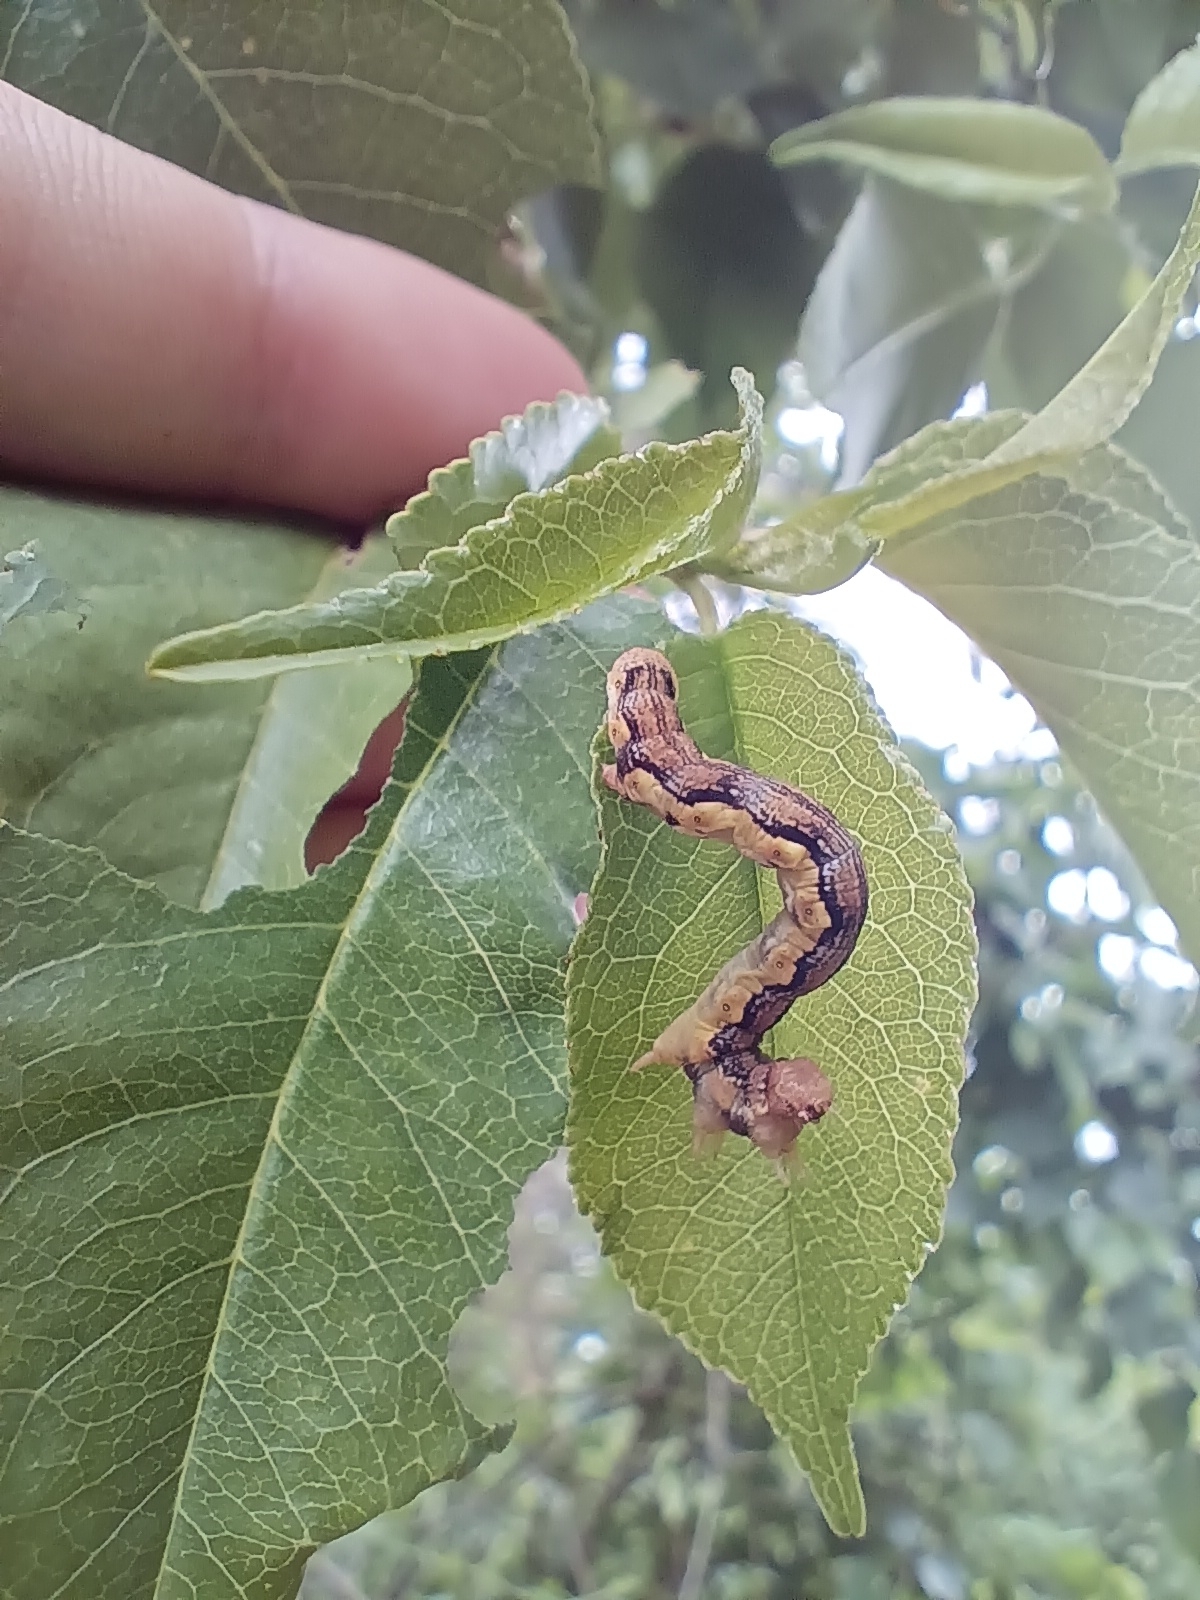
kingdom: Animalia
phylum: Arthropoda
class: Insecta
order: Lepidoptera
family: Geometridae
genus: Erannis
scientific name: Erannis defoliaria
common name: Mottled umber
